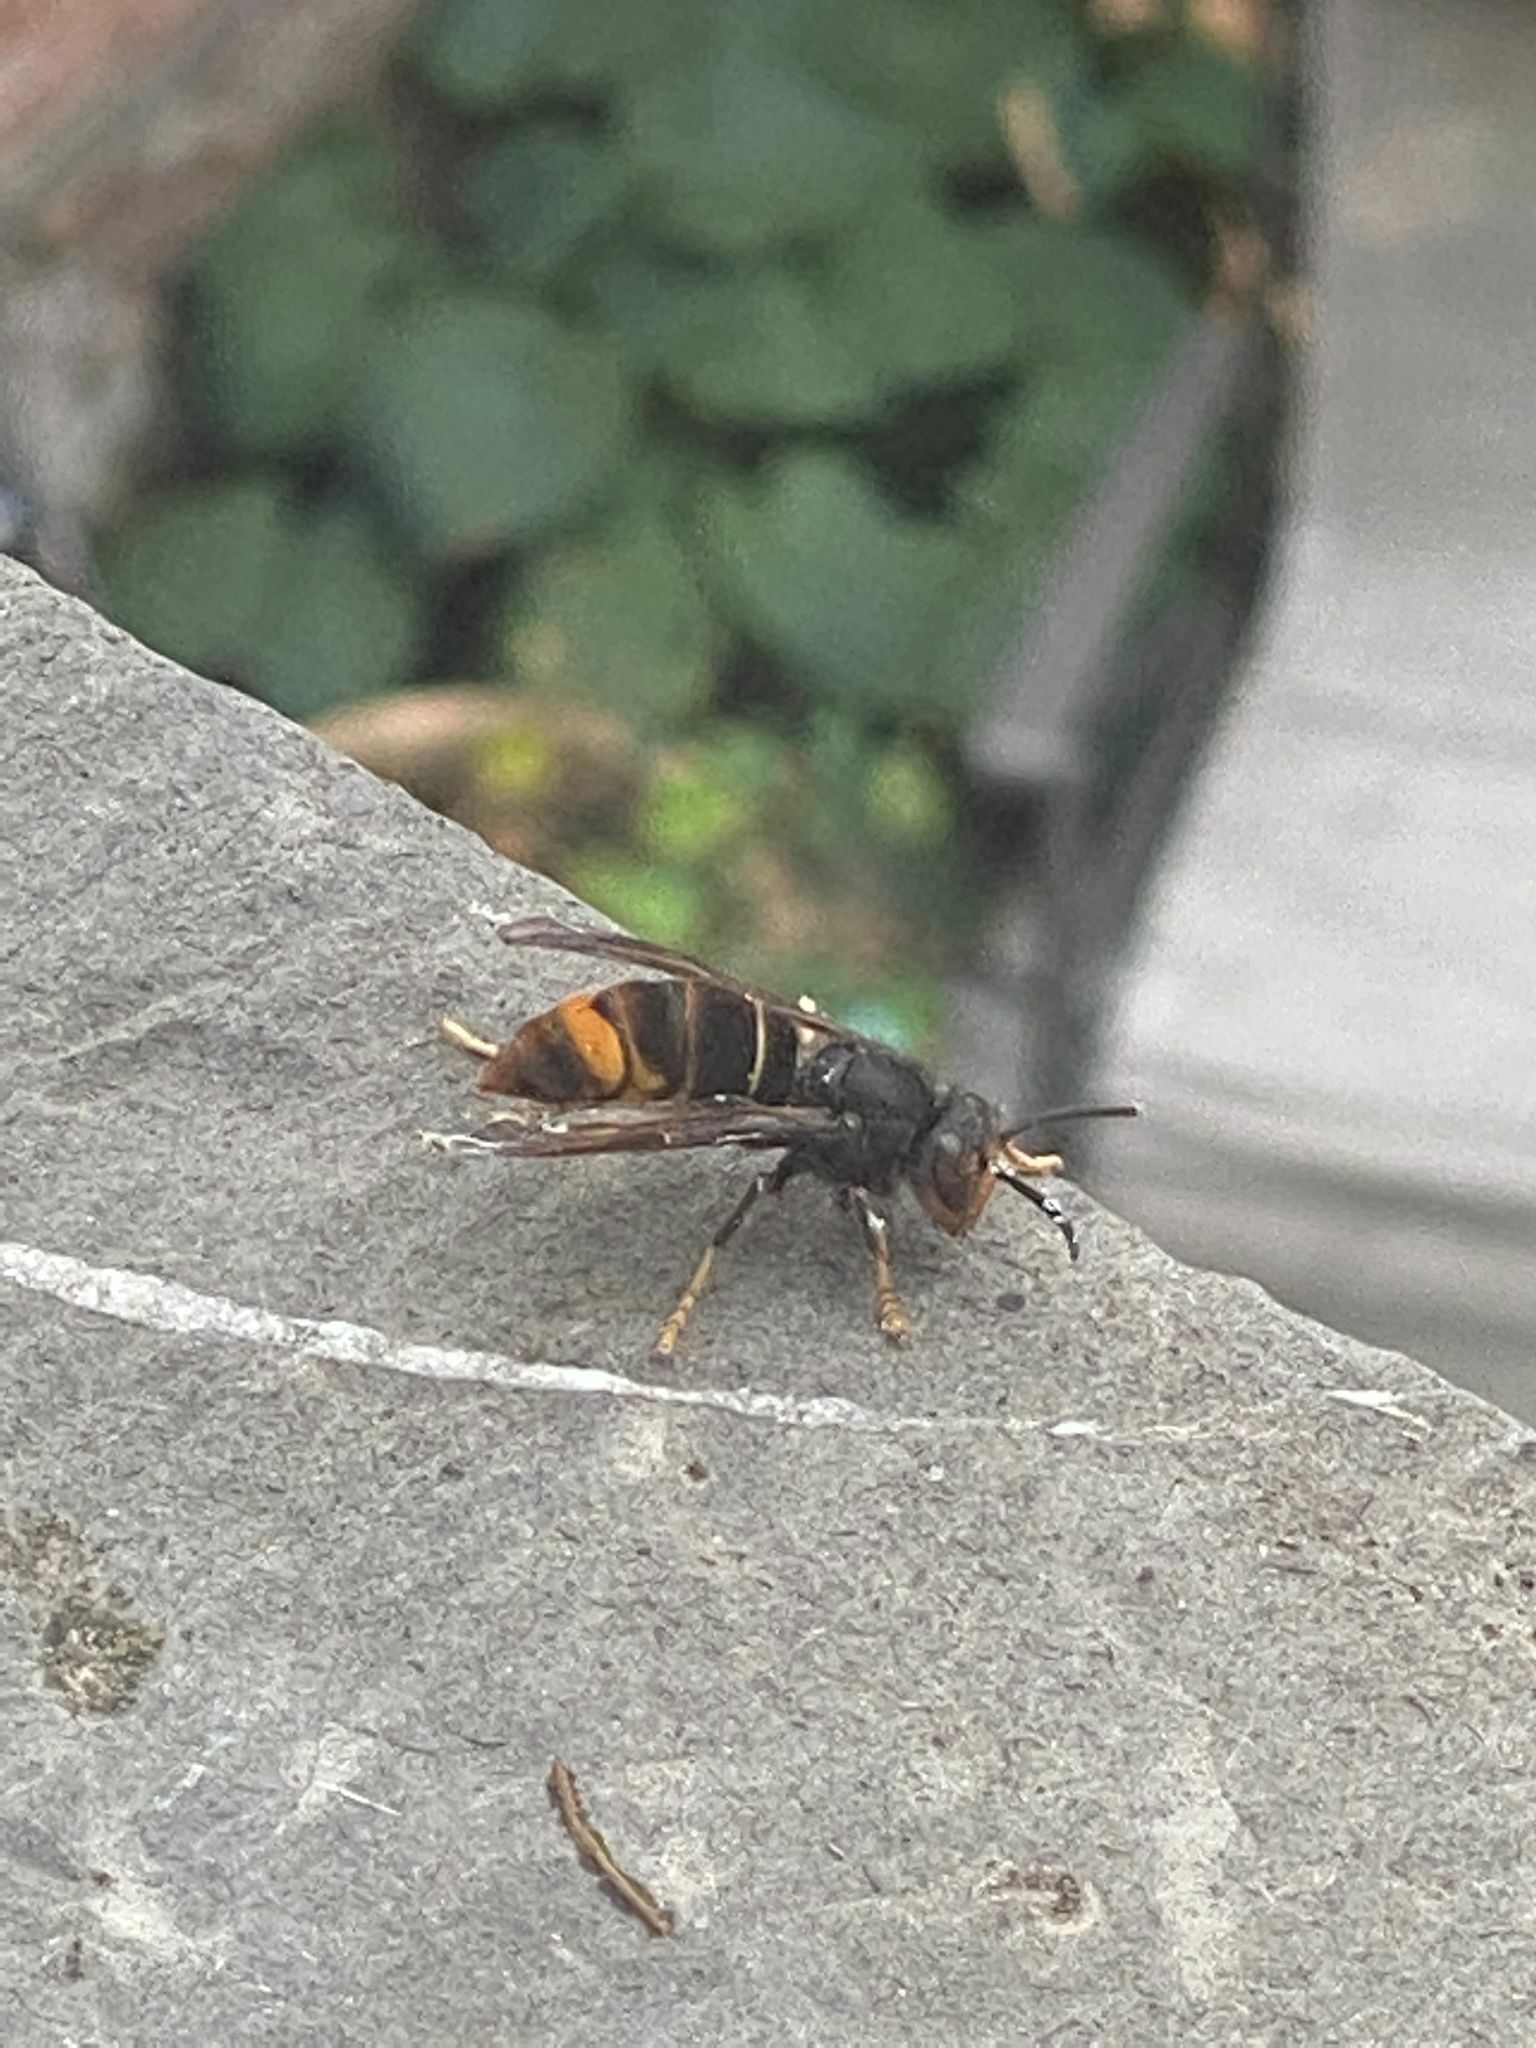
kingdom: Animalia
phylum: Arthropoda
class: Insecta
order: Hymenoptera
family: Vespidae
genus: Vespa
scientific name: Vespa velutina
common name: Asian hornet
